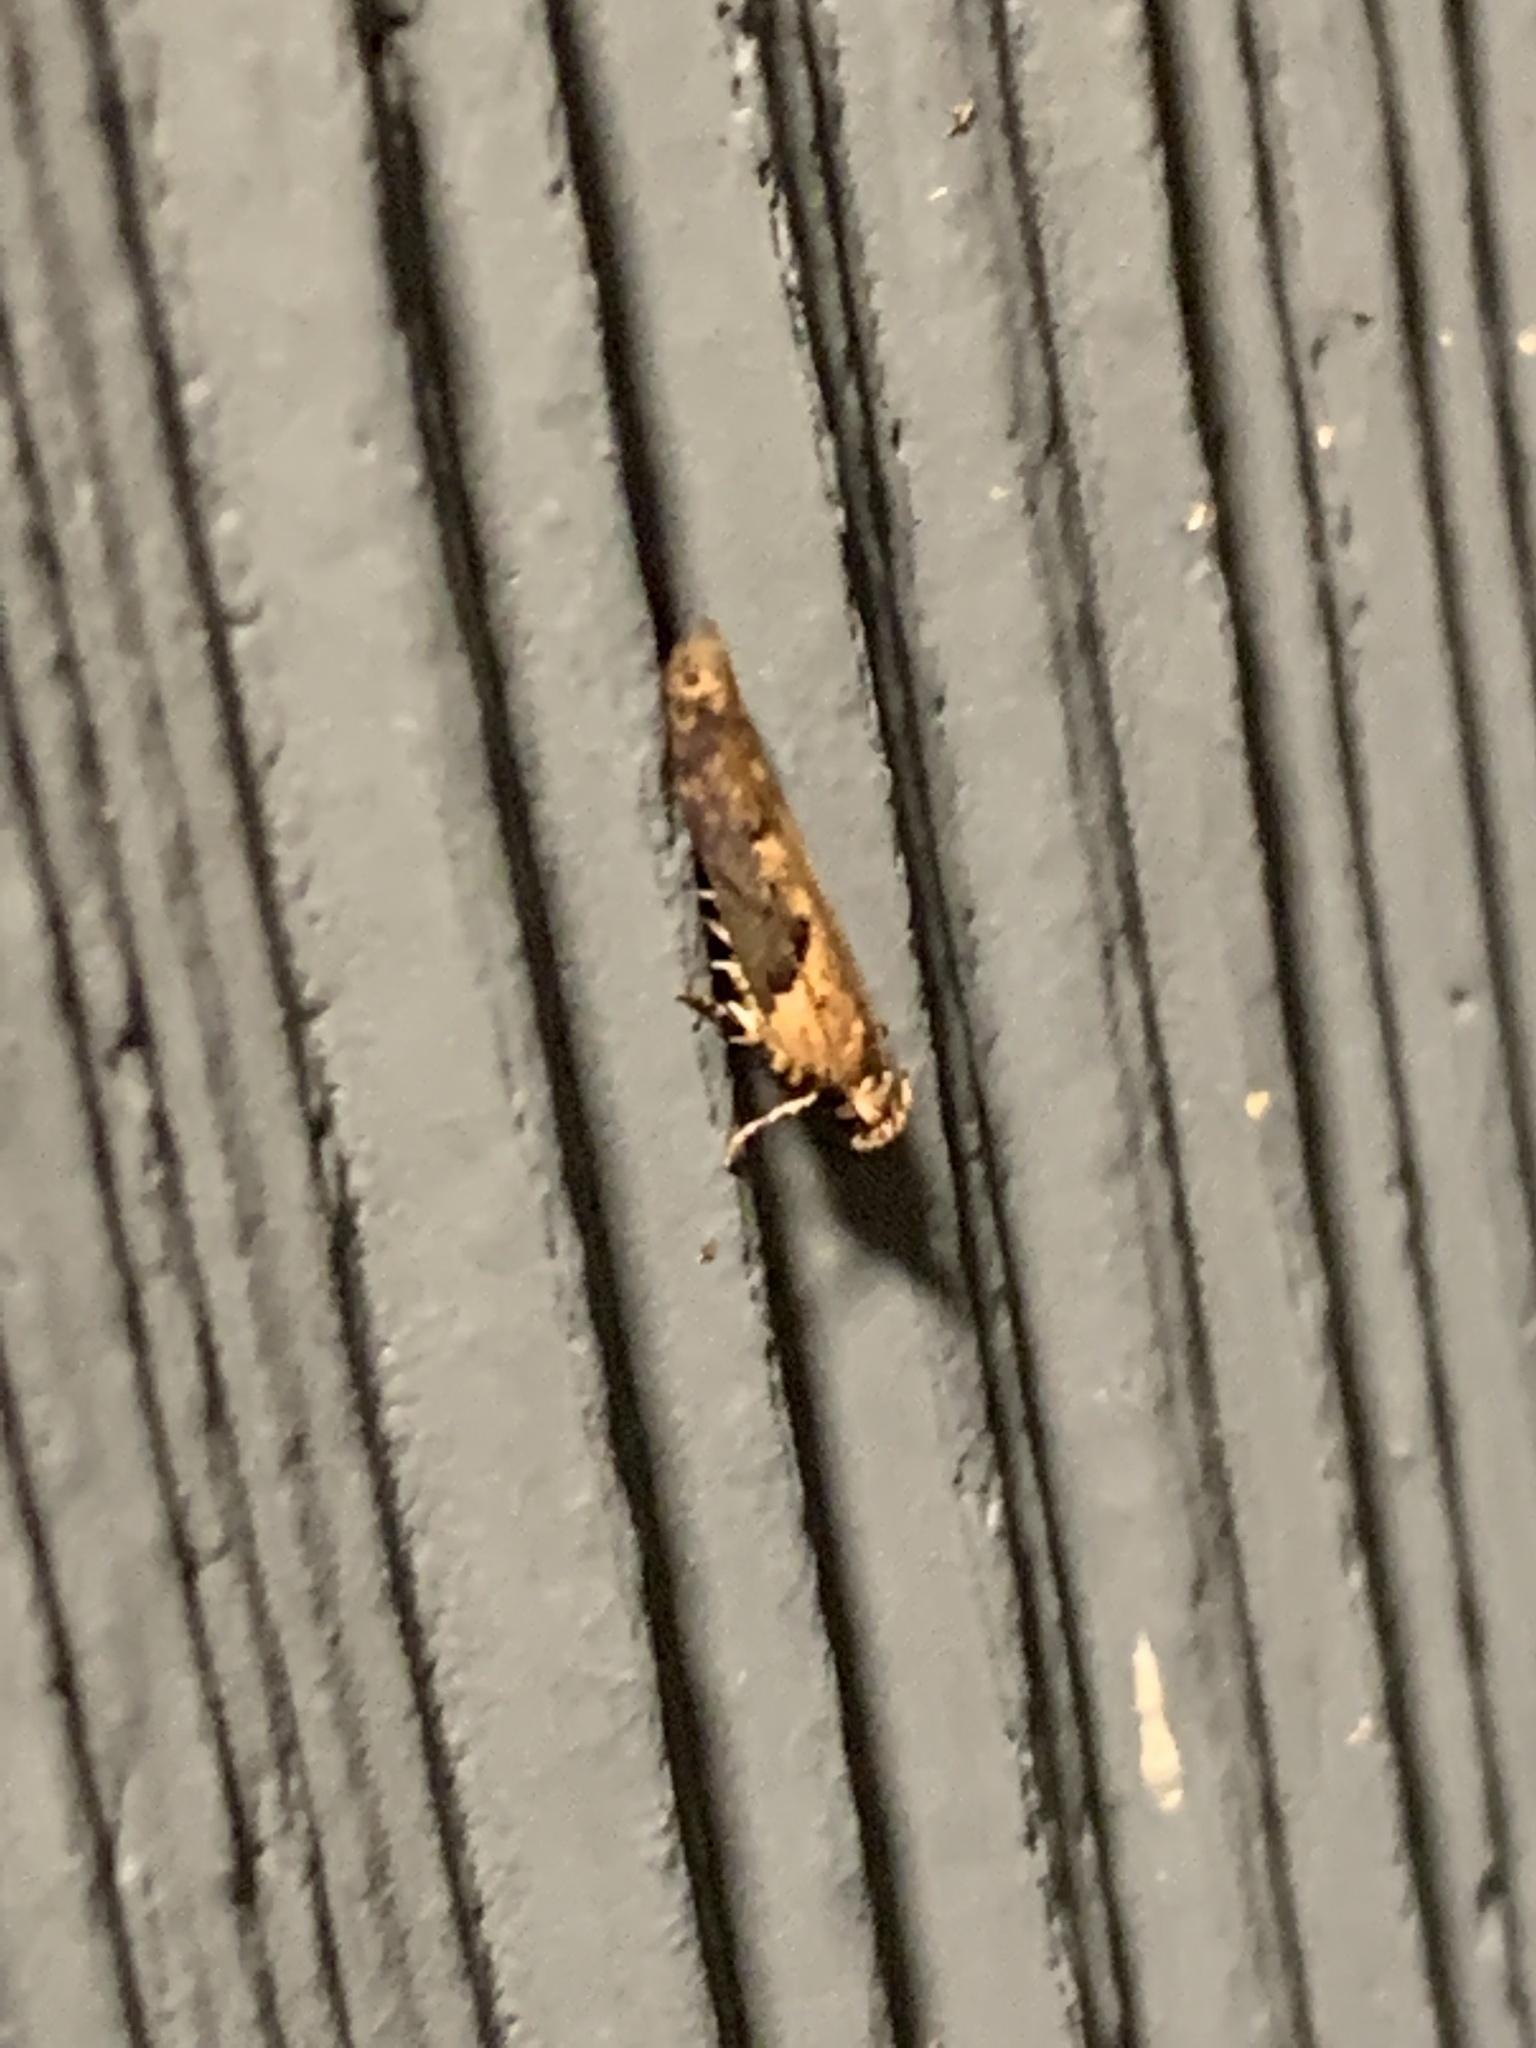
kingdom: Animalia
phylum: Arthropoda
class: Insecta
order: Lepidoptera
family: Gelechiidae
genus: Chionodes
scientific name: Chionodes mediofuscella
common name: Black-smudged chionodes moth
